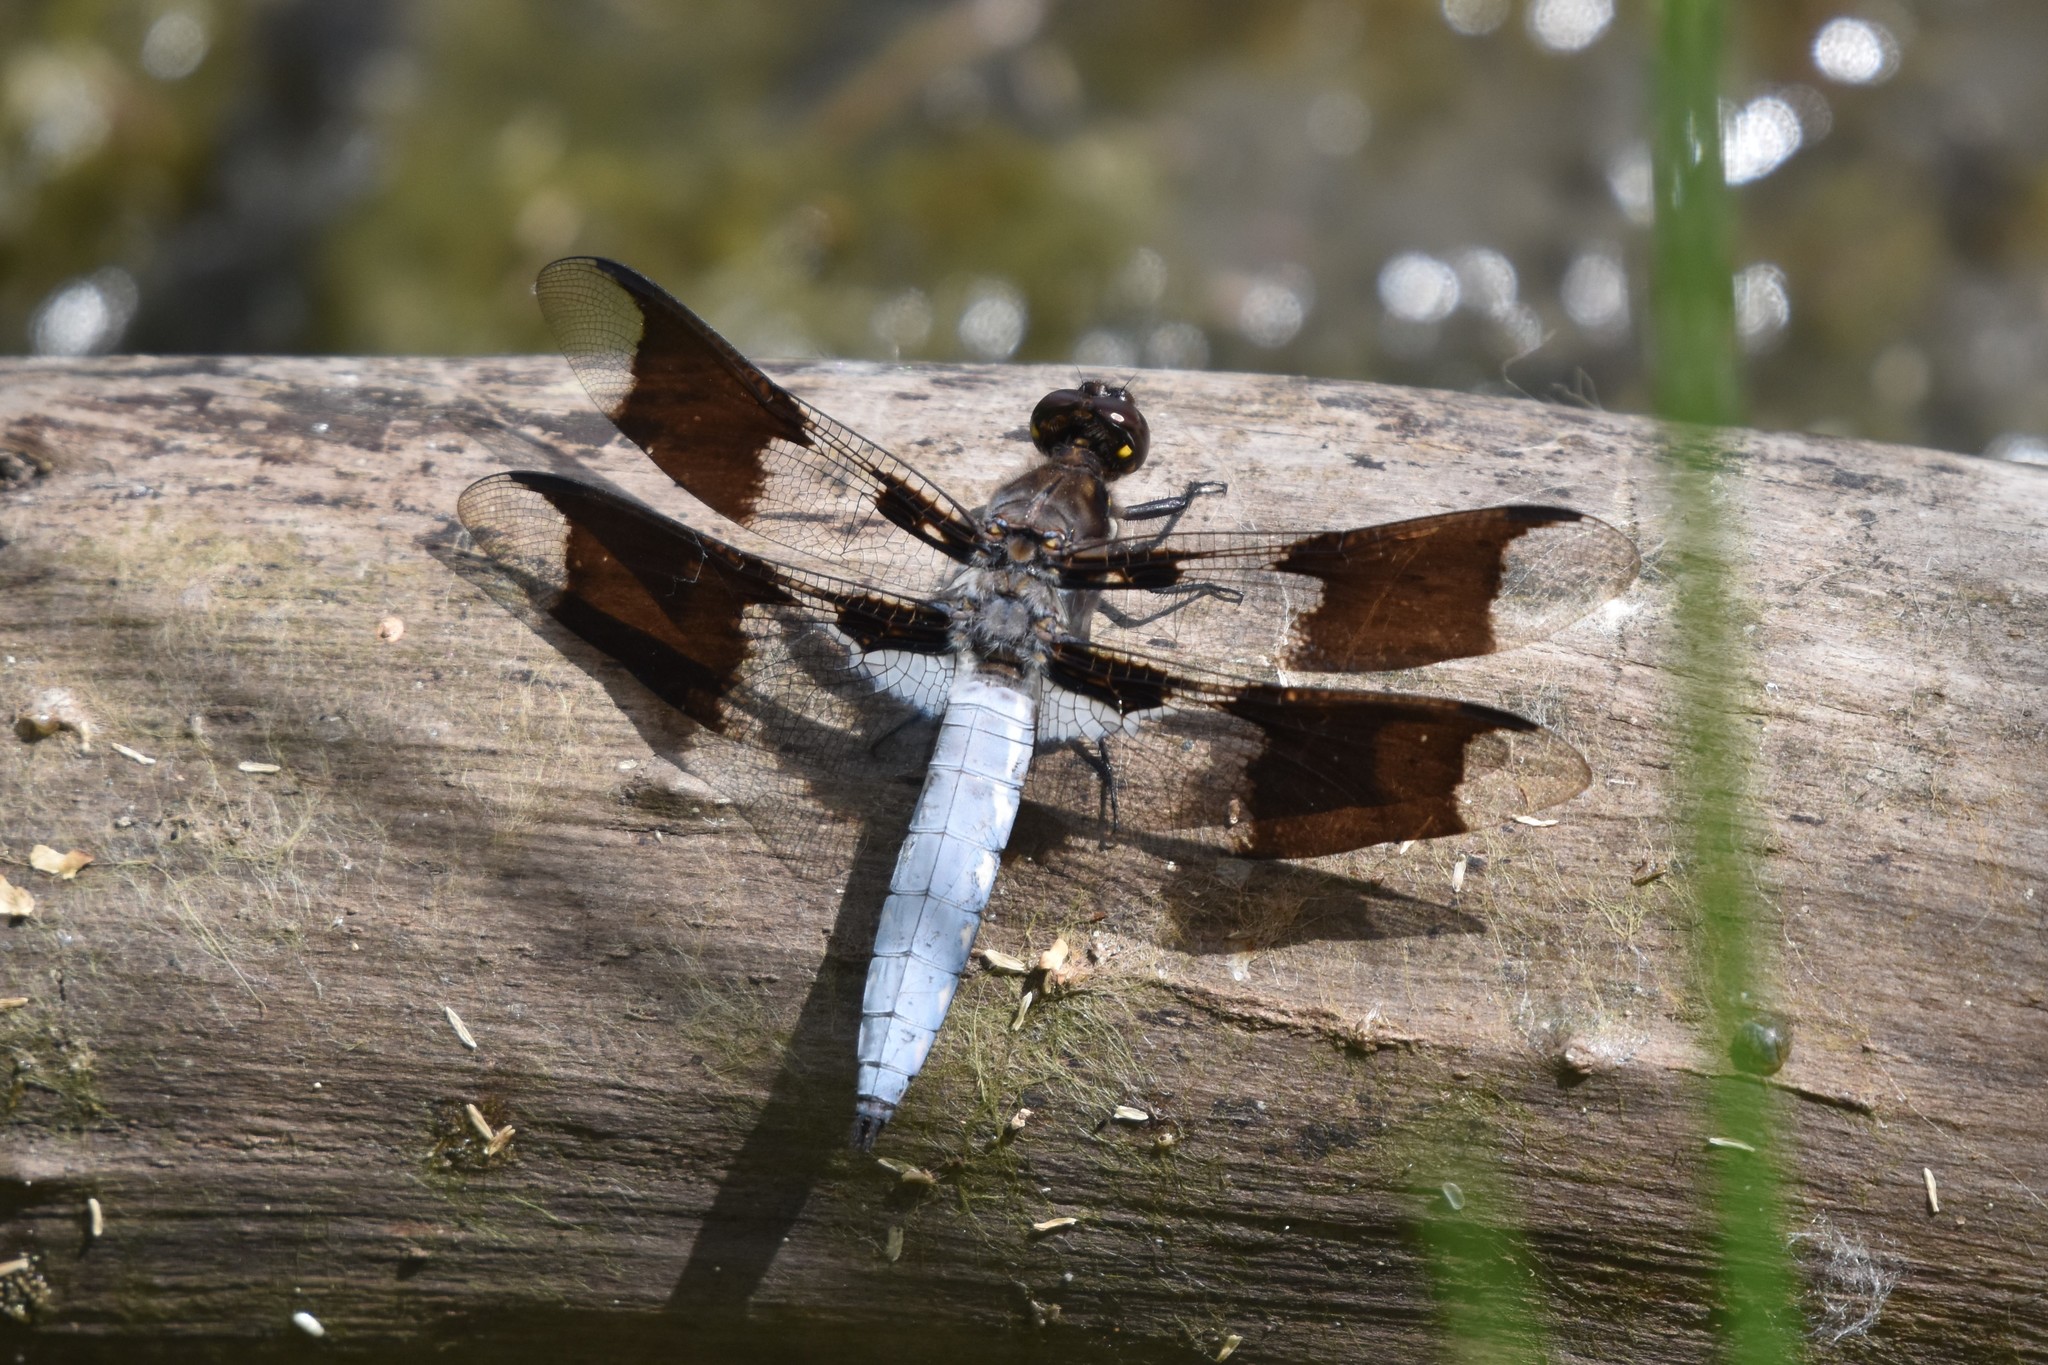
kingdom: Animalia
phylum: Arthropoda
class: Insecta
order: Odonata
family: Libellulidae
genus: Plathemis
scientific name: Plathemis lydia
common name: Common whitetail
